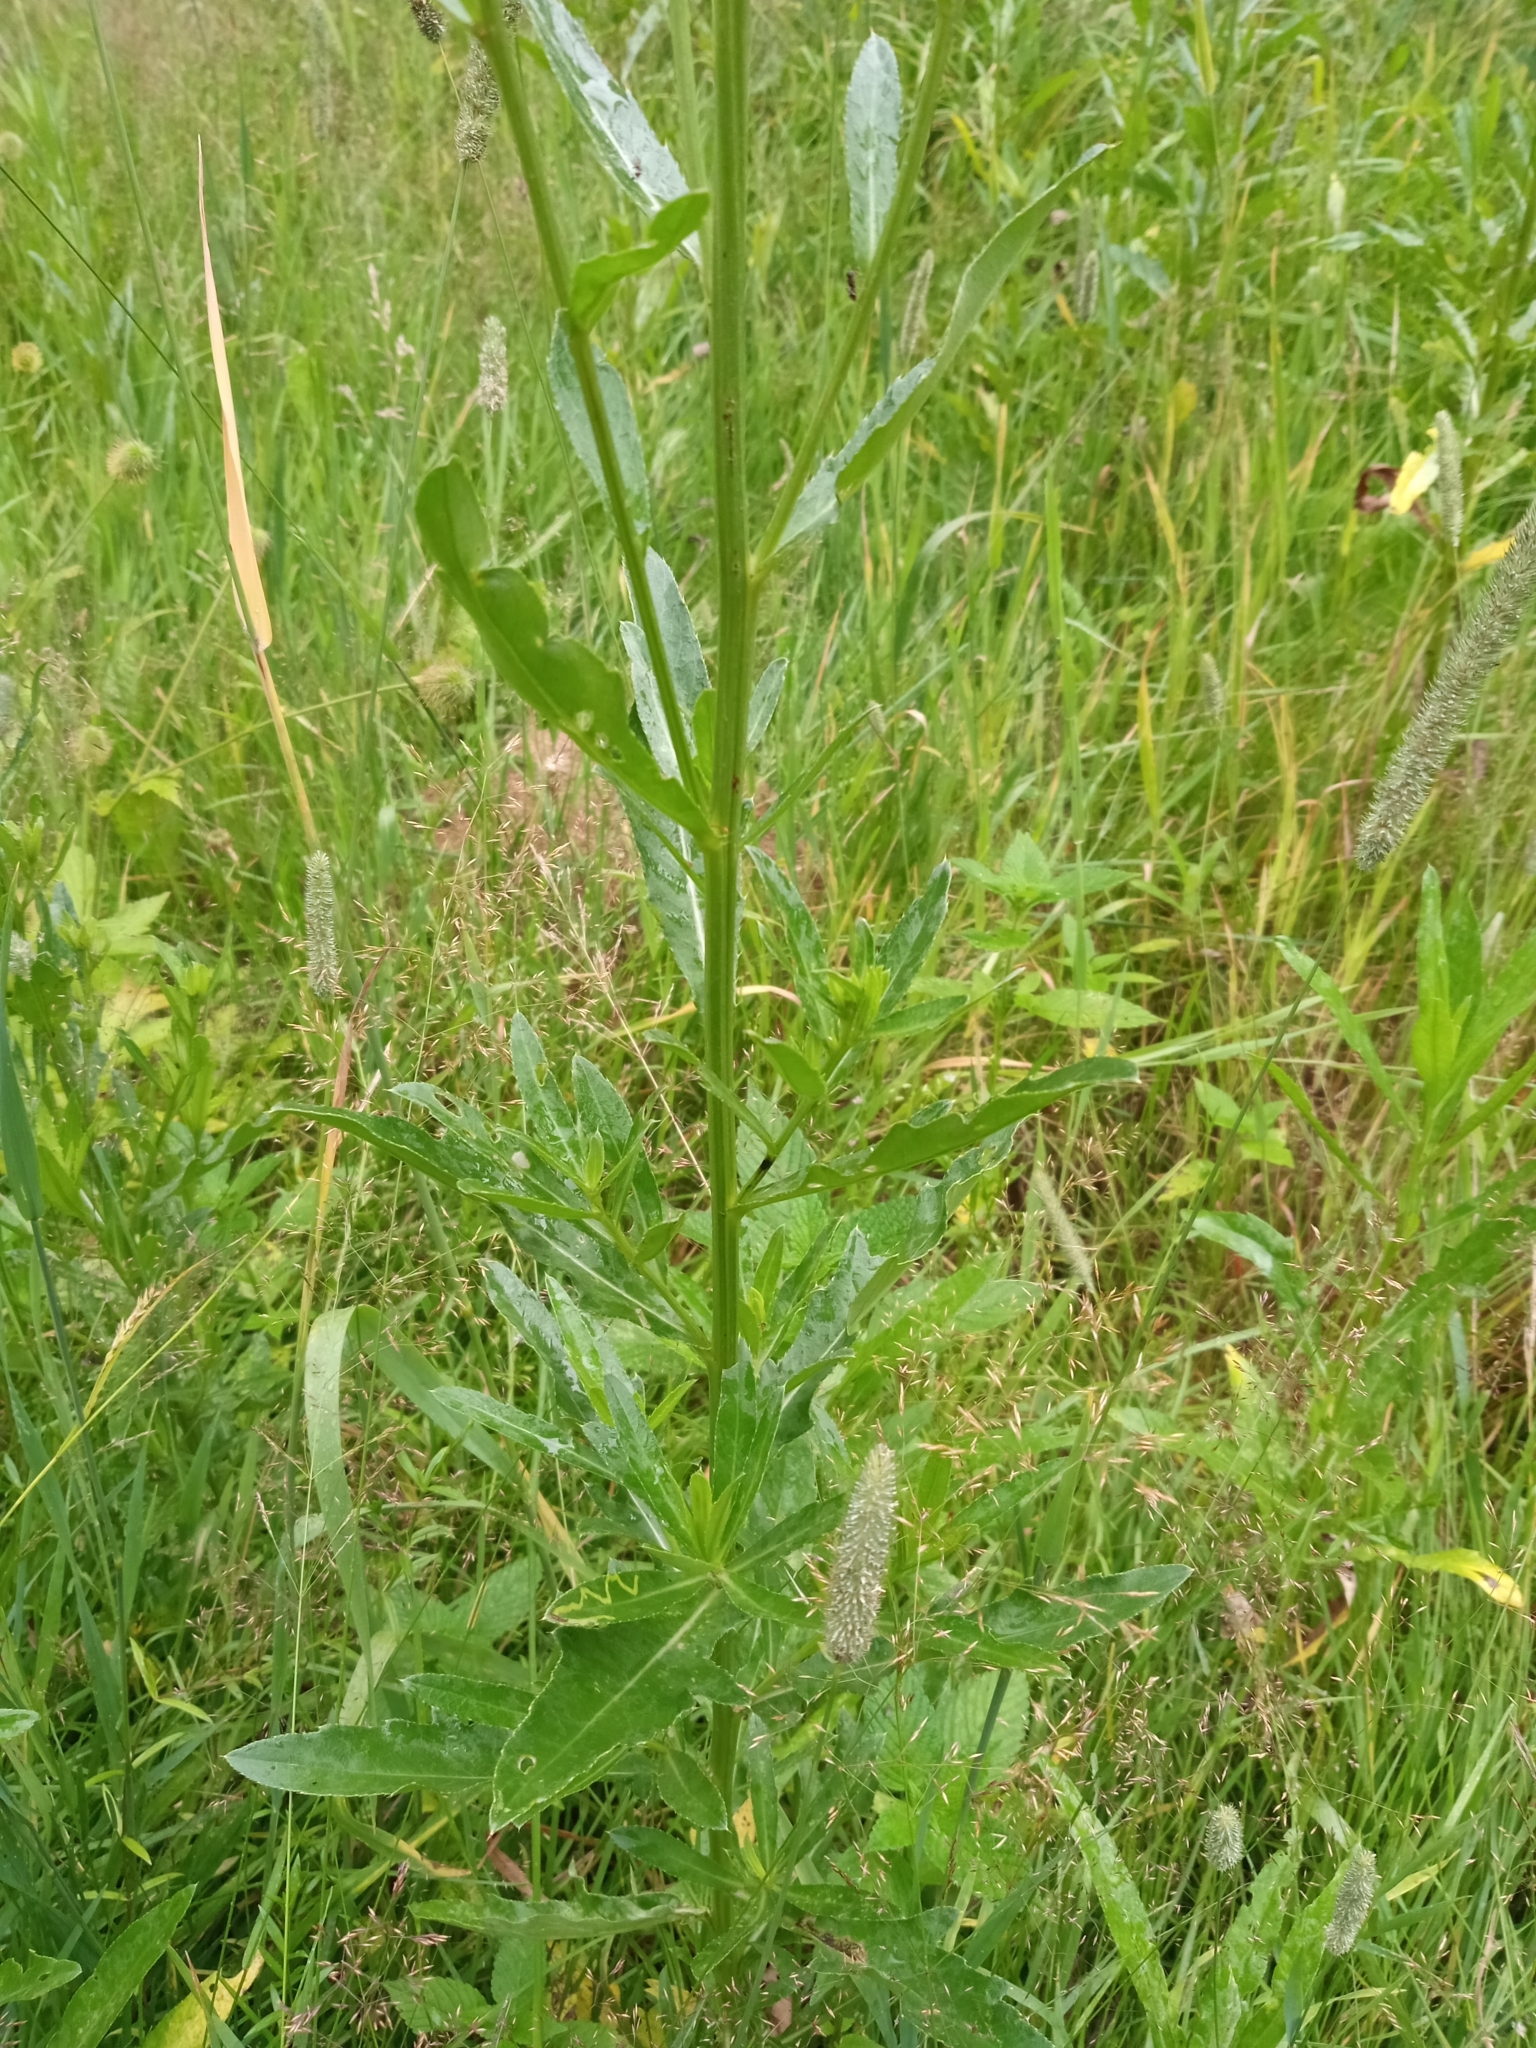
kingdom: Plantae
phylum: Tracheophyta
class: Magnoliopsida
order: Asterales
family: Asteraceae
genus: Cirsium
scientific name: Cirsium arvense
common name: Creeping thistle
